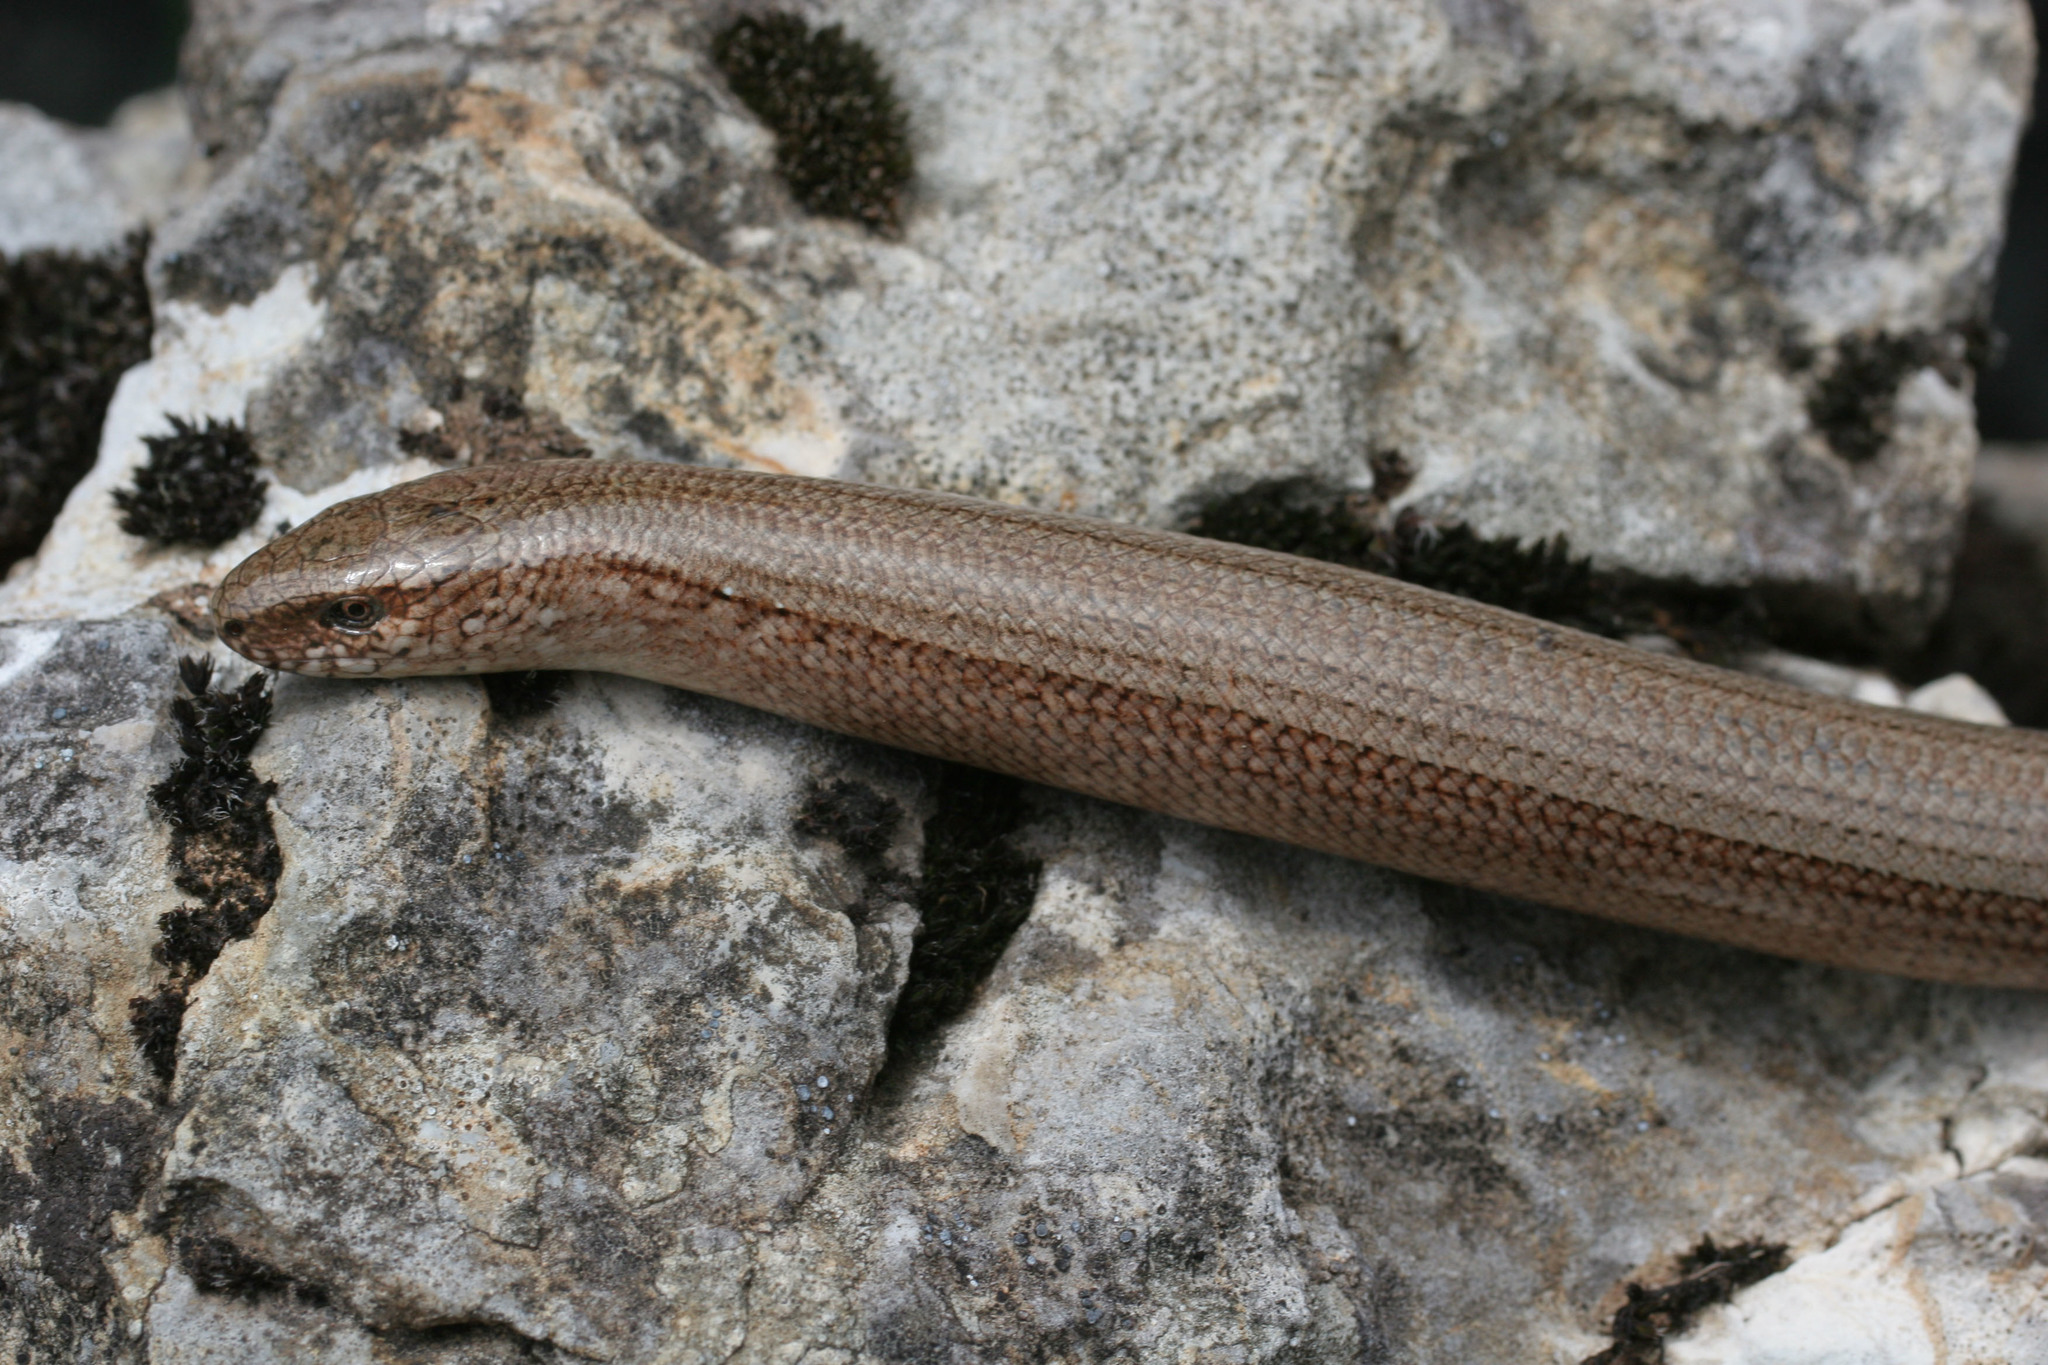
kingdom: Animalia
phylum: Chordata
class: Squamata
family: Anguidae
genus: Anguis
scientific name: Anguis fragilis
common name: Slow worm
